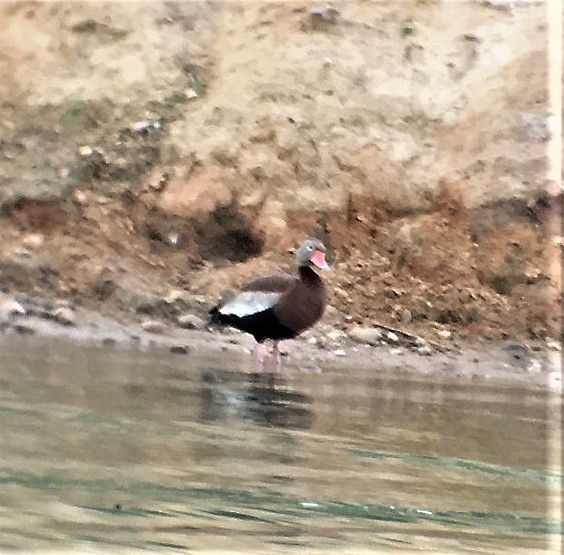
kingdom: Animalia
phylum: Chordata
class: Aves
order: Anseriformes
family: Anatidae
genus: Dendrocygna
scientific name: Dendrocygna autumnalis
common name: Black-bellied whistling duck
